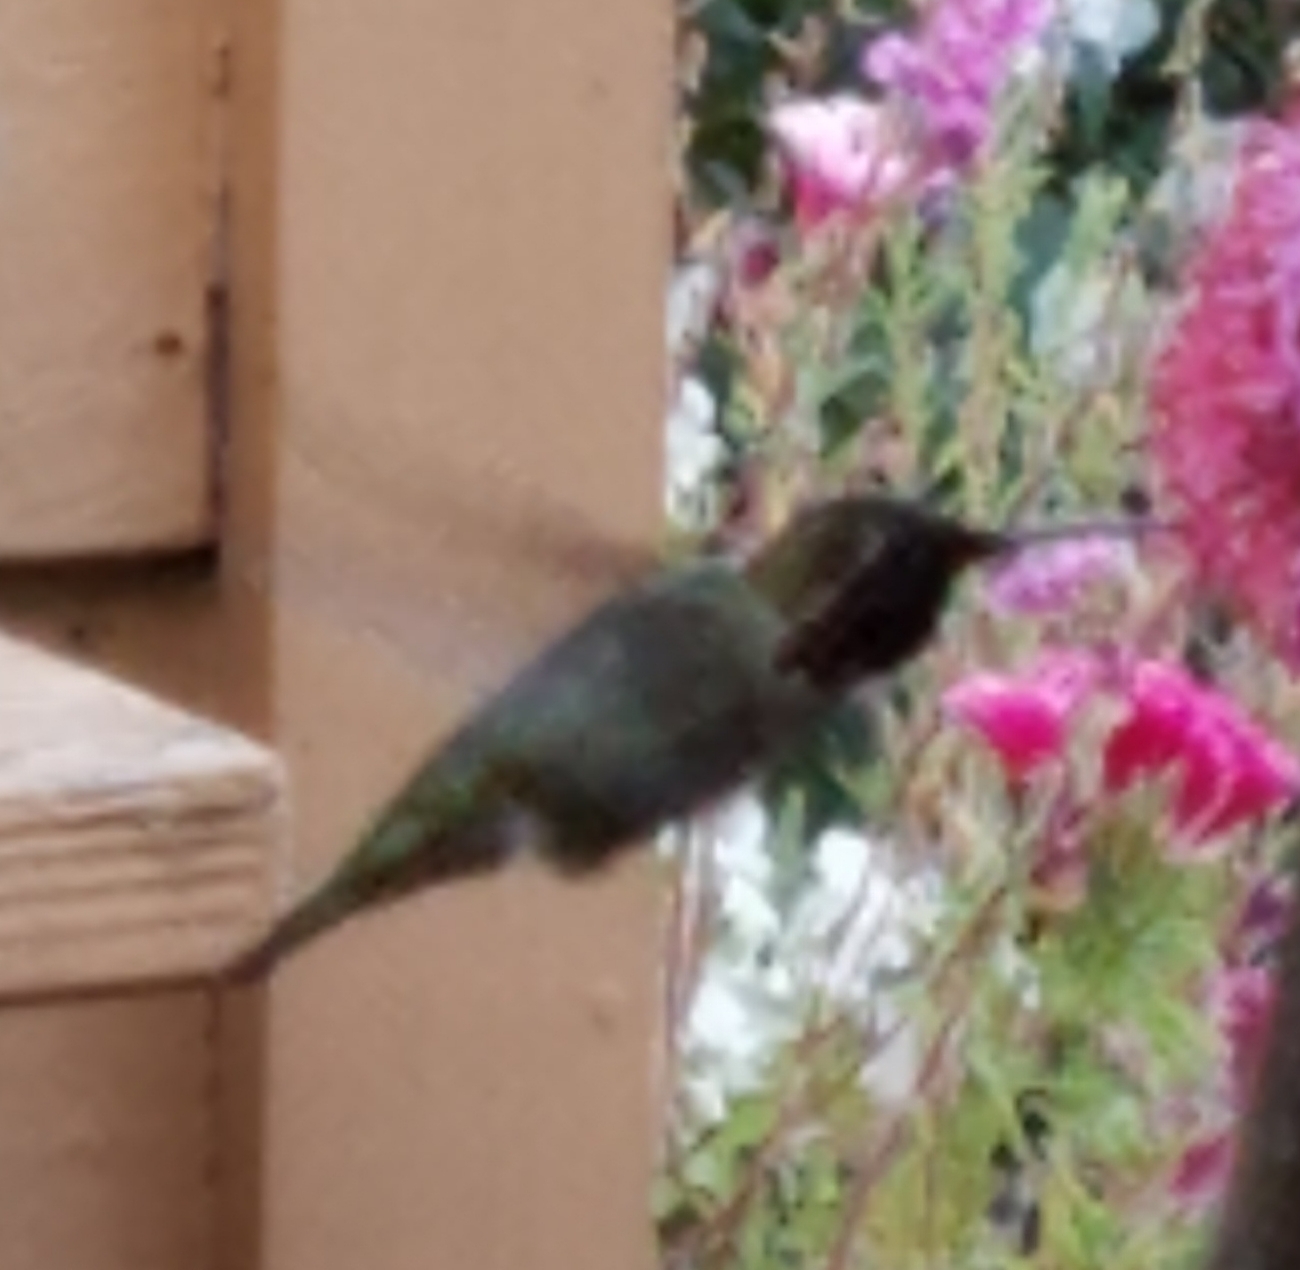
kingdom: Animalia
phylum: Chordata
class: Aves
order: Apodiformes
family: Trochilidae
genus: Calypte
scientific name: Calypte anna
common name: Anna's hummingbird
